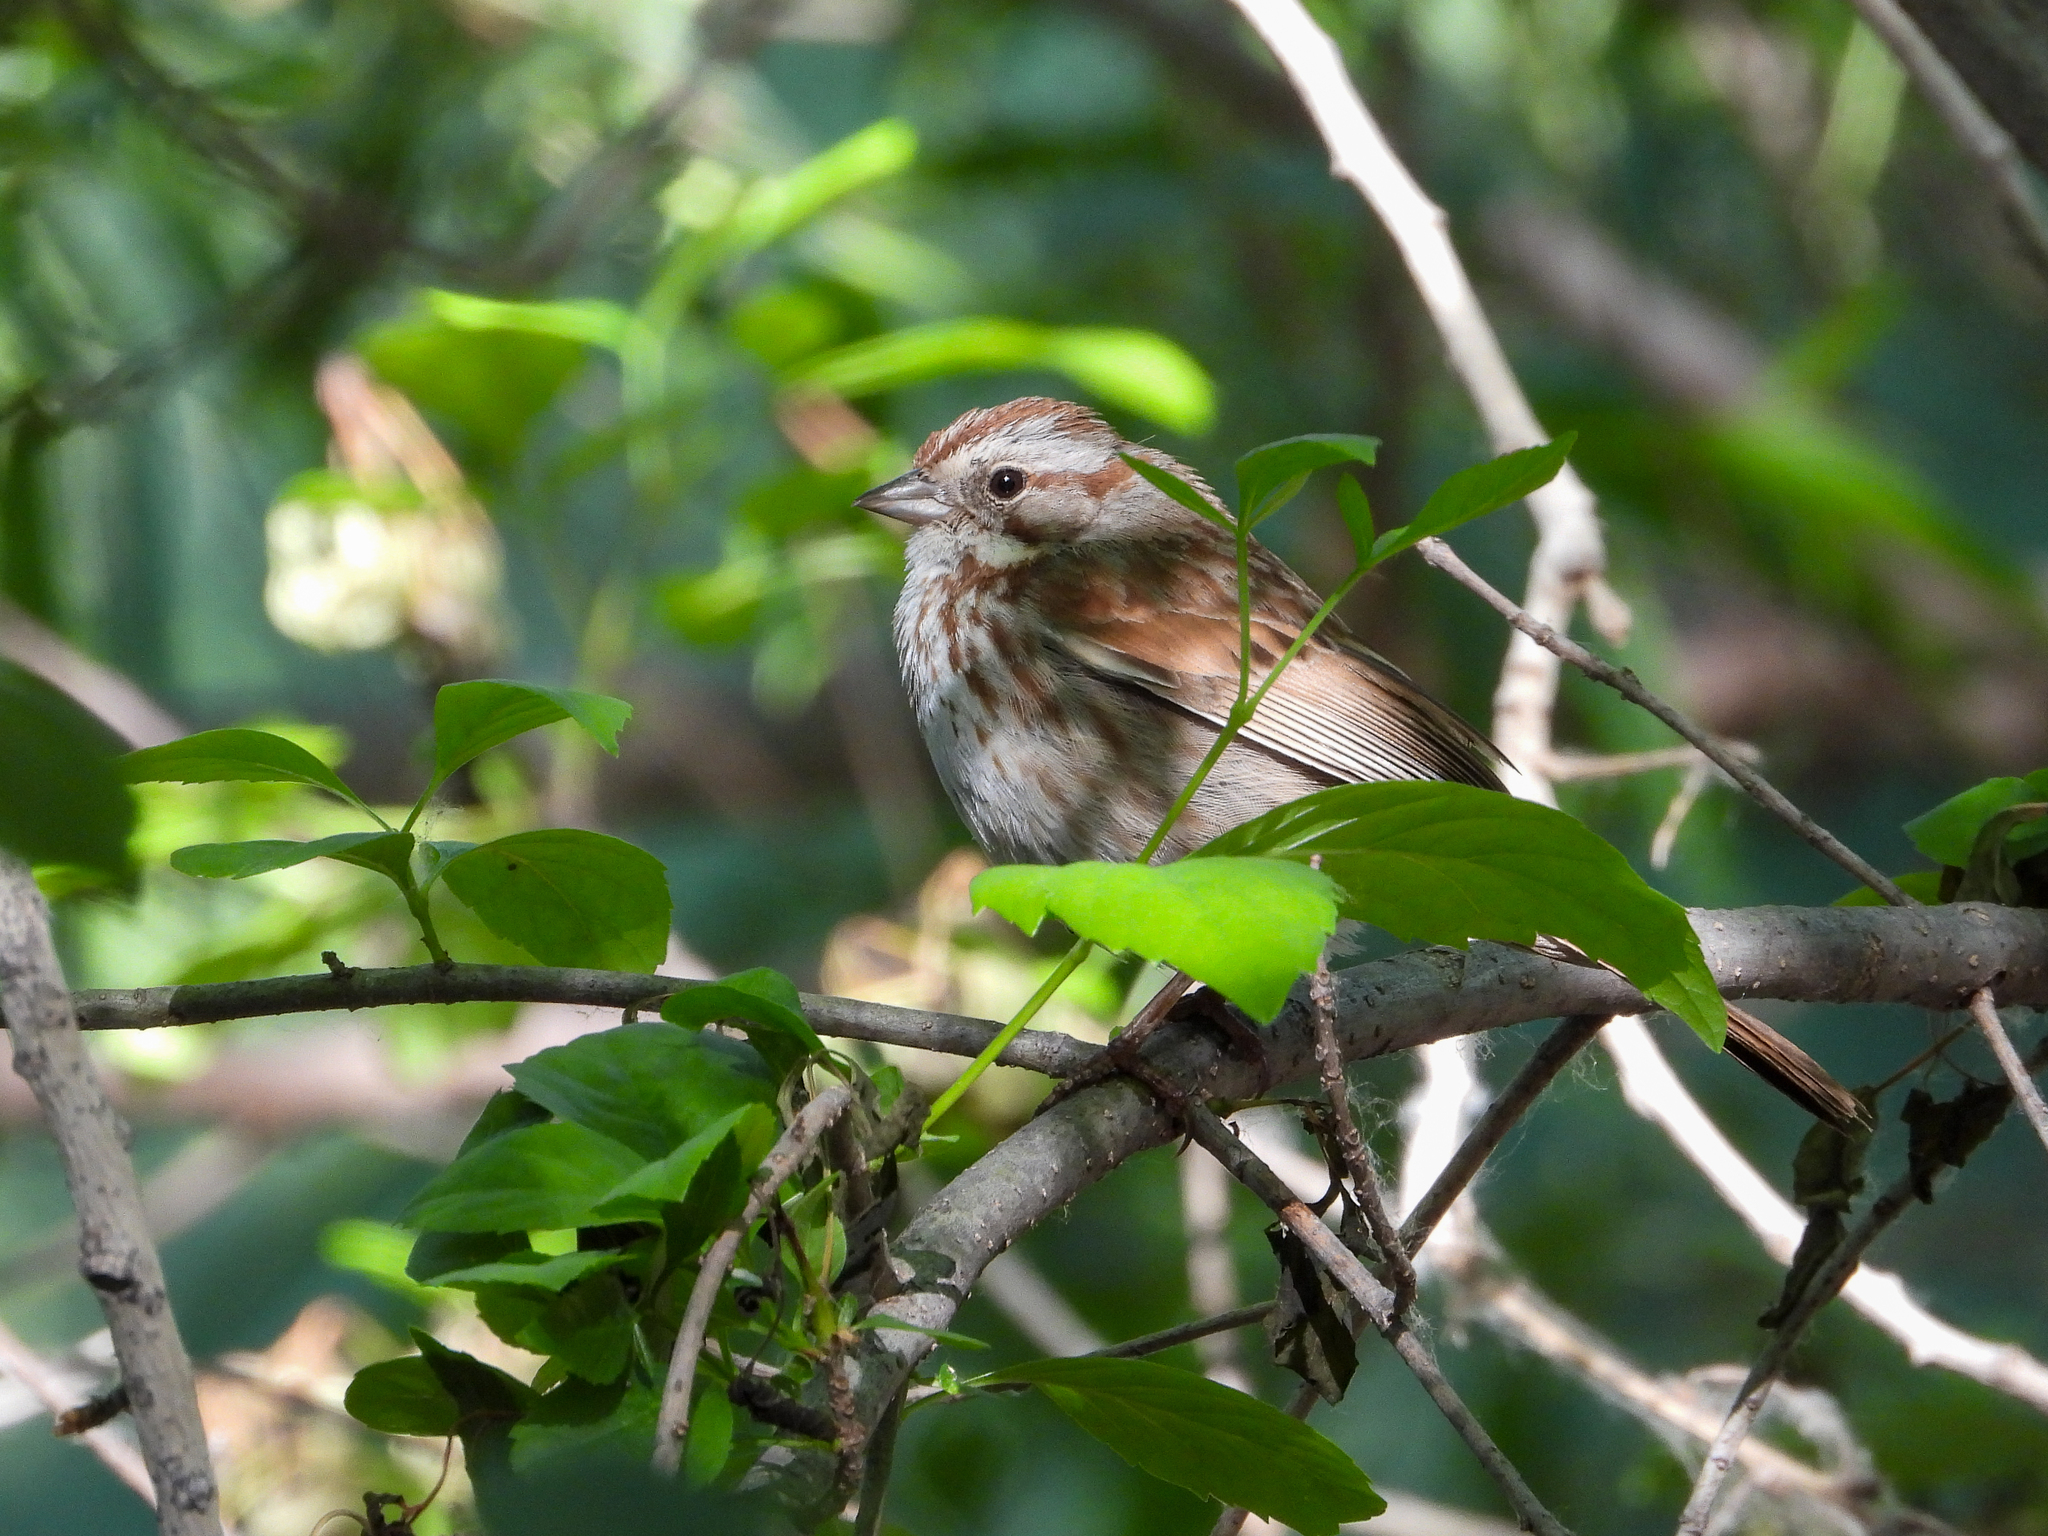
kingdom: Animalia
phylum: Chordata
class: Aves
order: Passeriformes
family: Passerellidae
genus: Melospiza
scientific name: Melospiza melodia
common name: Song sparrow
